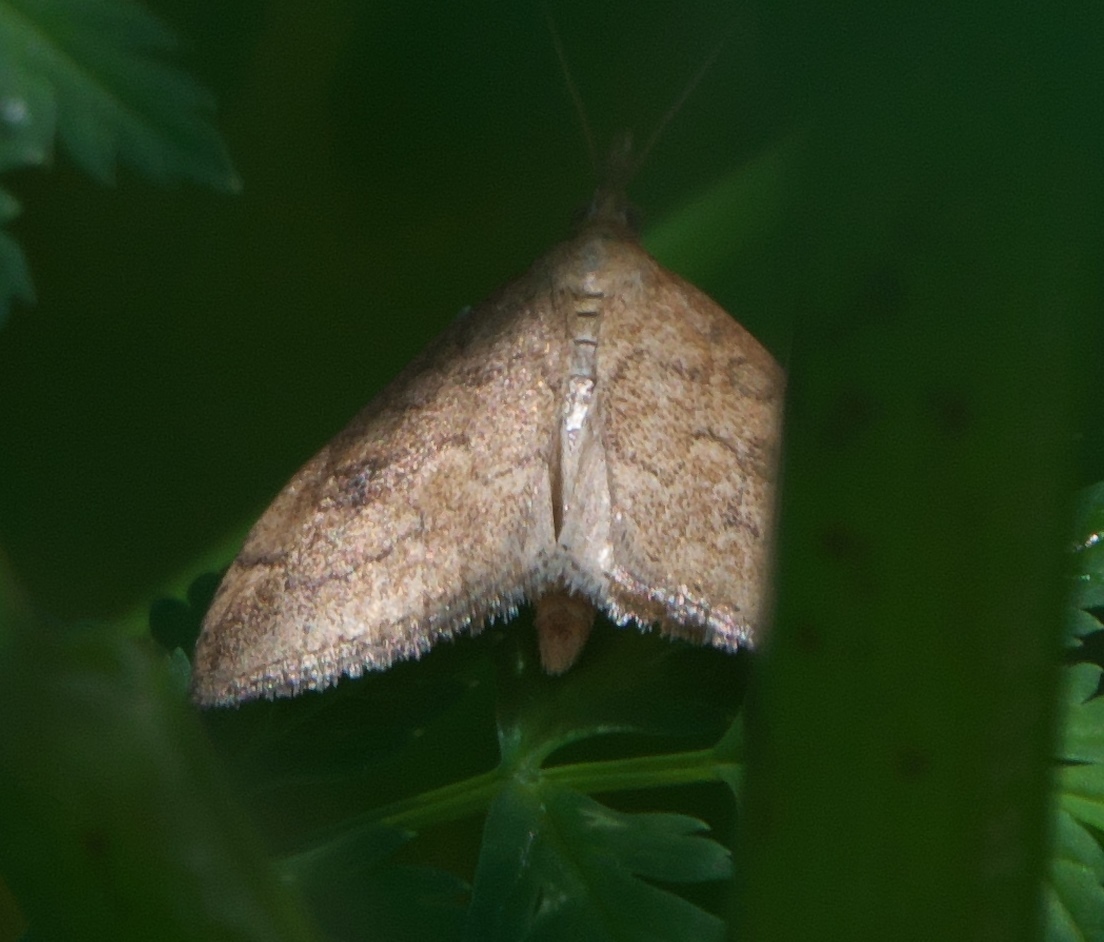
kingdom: Animalia
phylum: Arthropoda
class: Insecta
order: Lepidoptera
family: Crambidae
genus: Udea
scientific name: Udea rubigalis
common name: Celery leaftier moth
